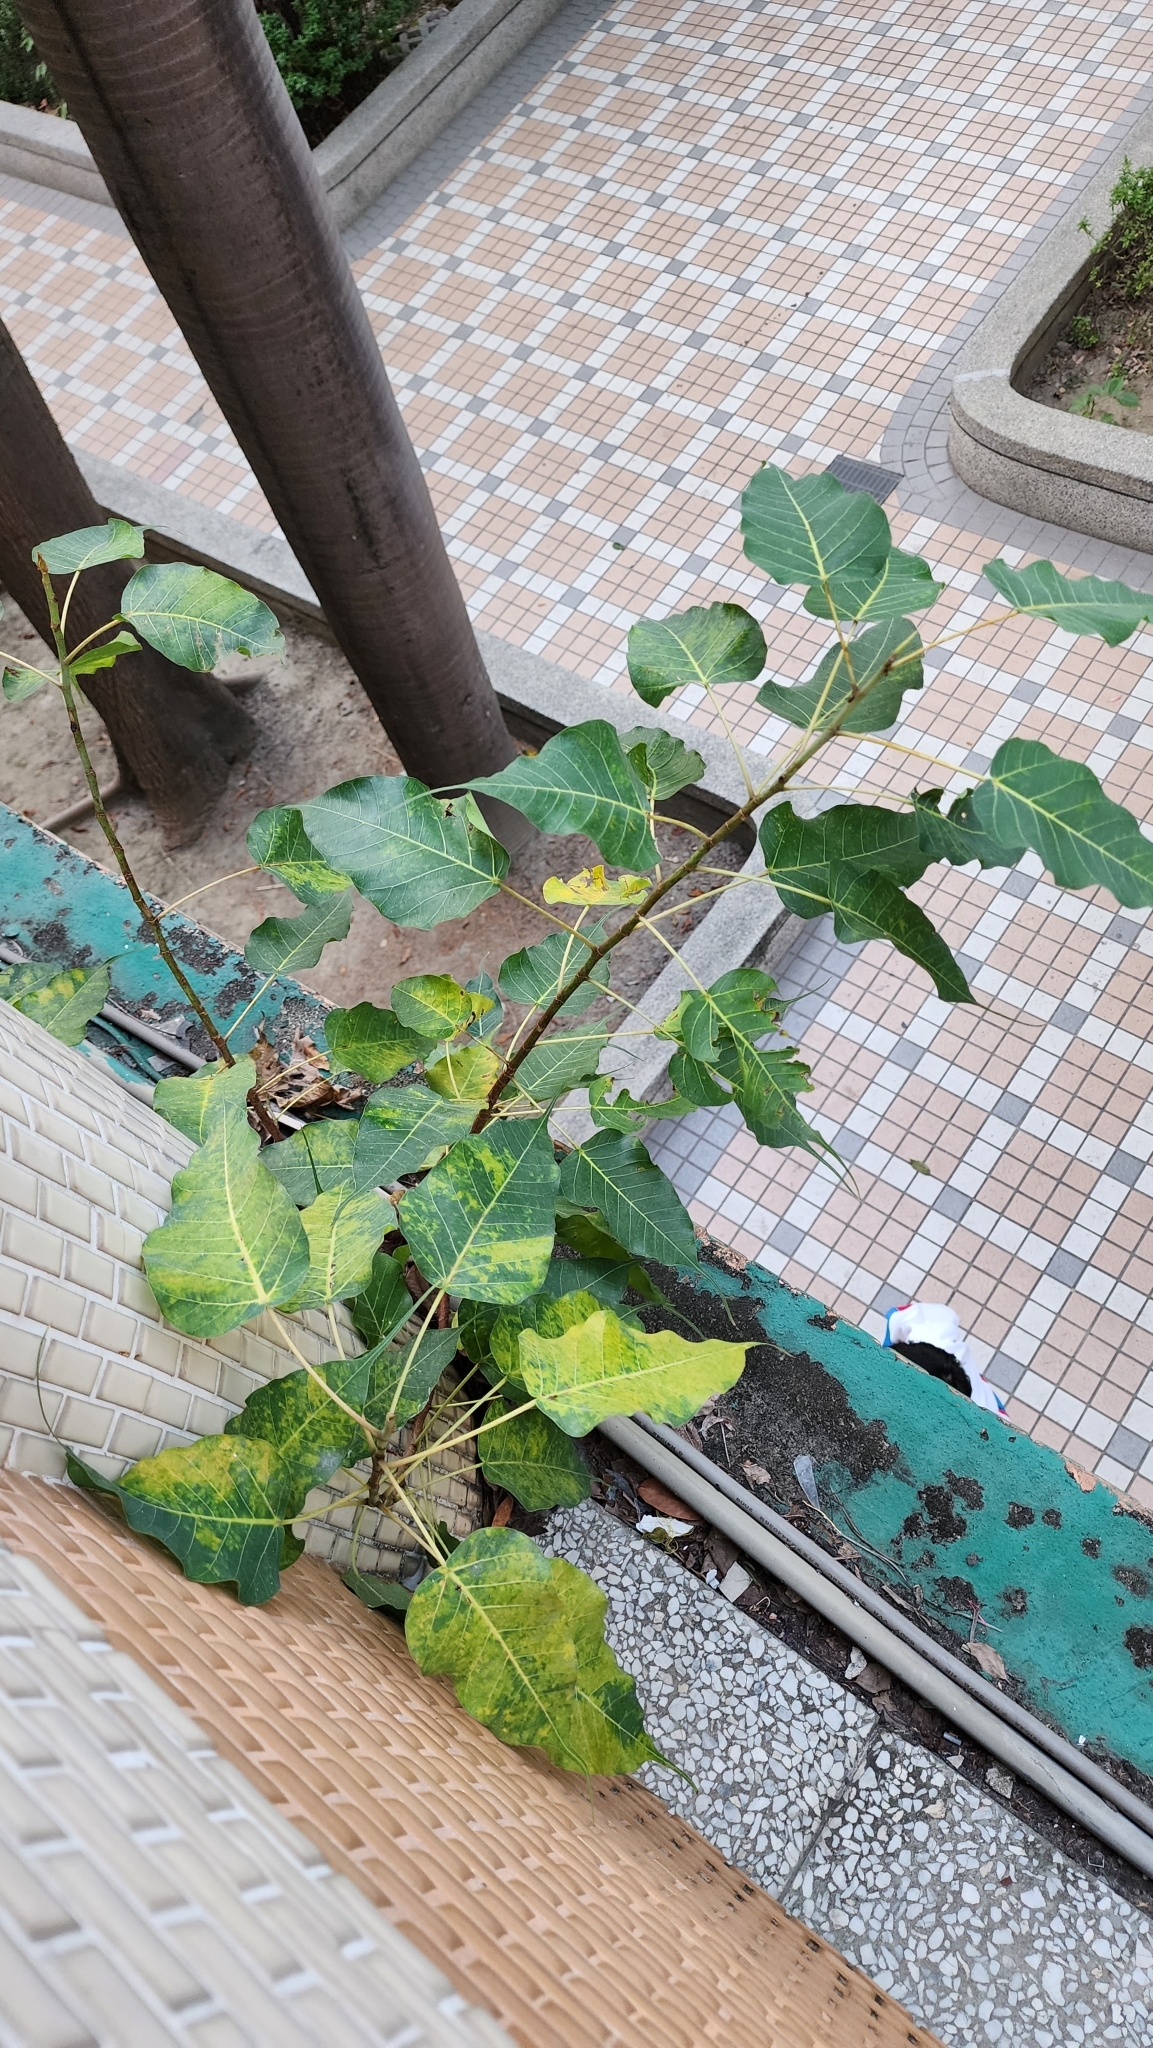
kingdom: Plantae
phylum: Tracheophyta
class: Magnoliopsida
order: Rosales
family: Moraceae
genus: Ficus
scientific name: Ficus religiosa
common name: Bodhi tree
